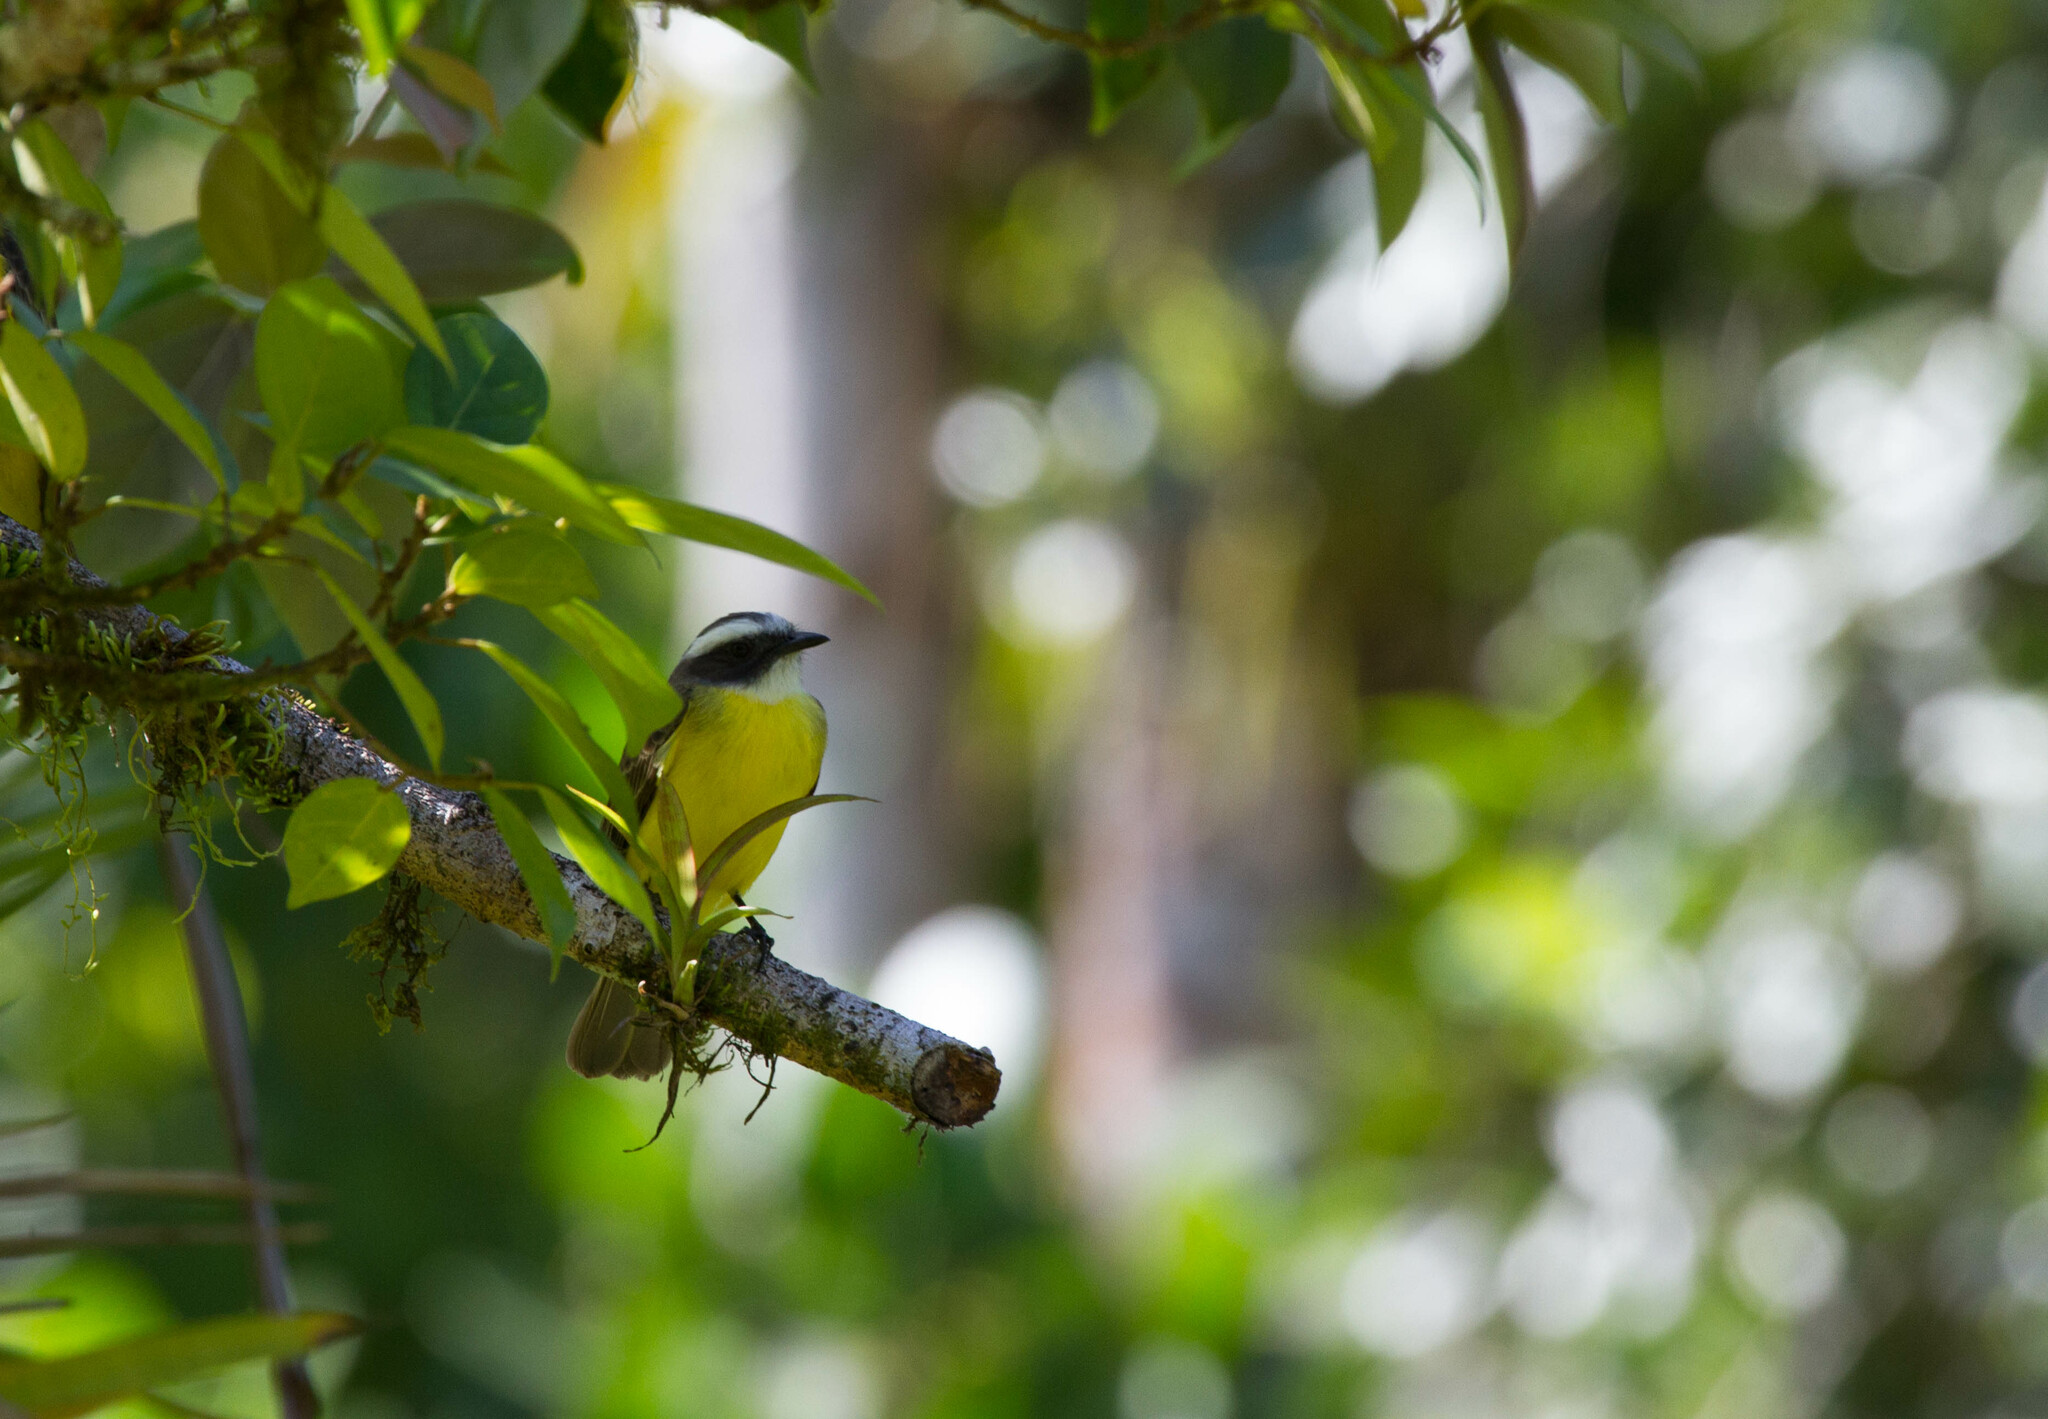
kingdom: Animalia
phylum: Chordata
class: Aves
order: Passeriformes
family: Tyrannidae
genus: Myiozetetes
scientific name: Myiozetetes similis
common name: Social flycatcher
